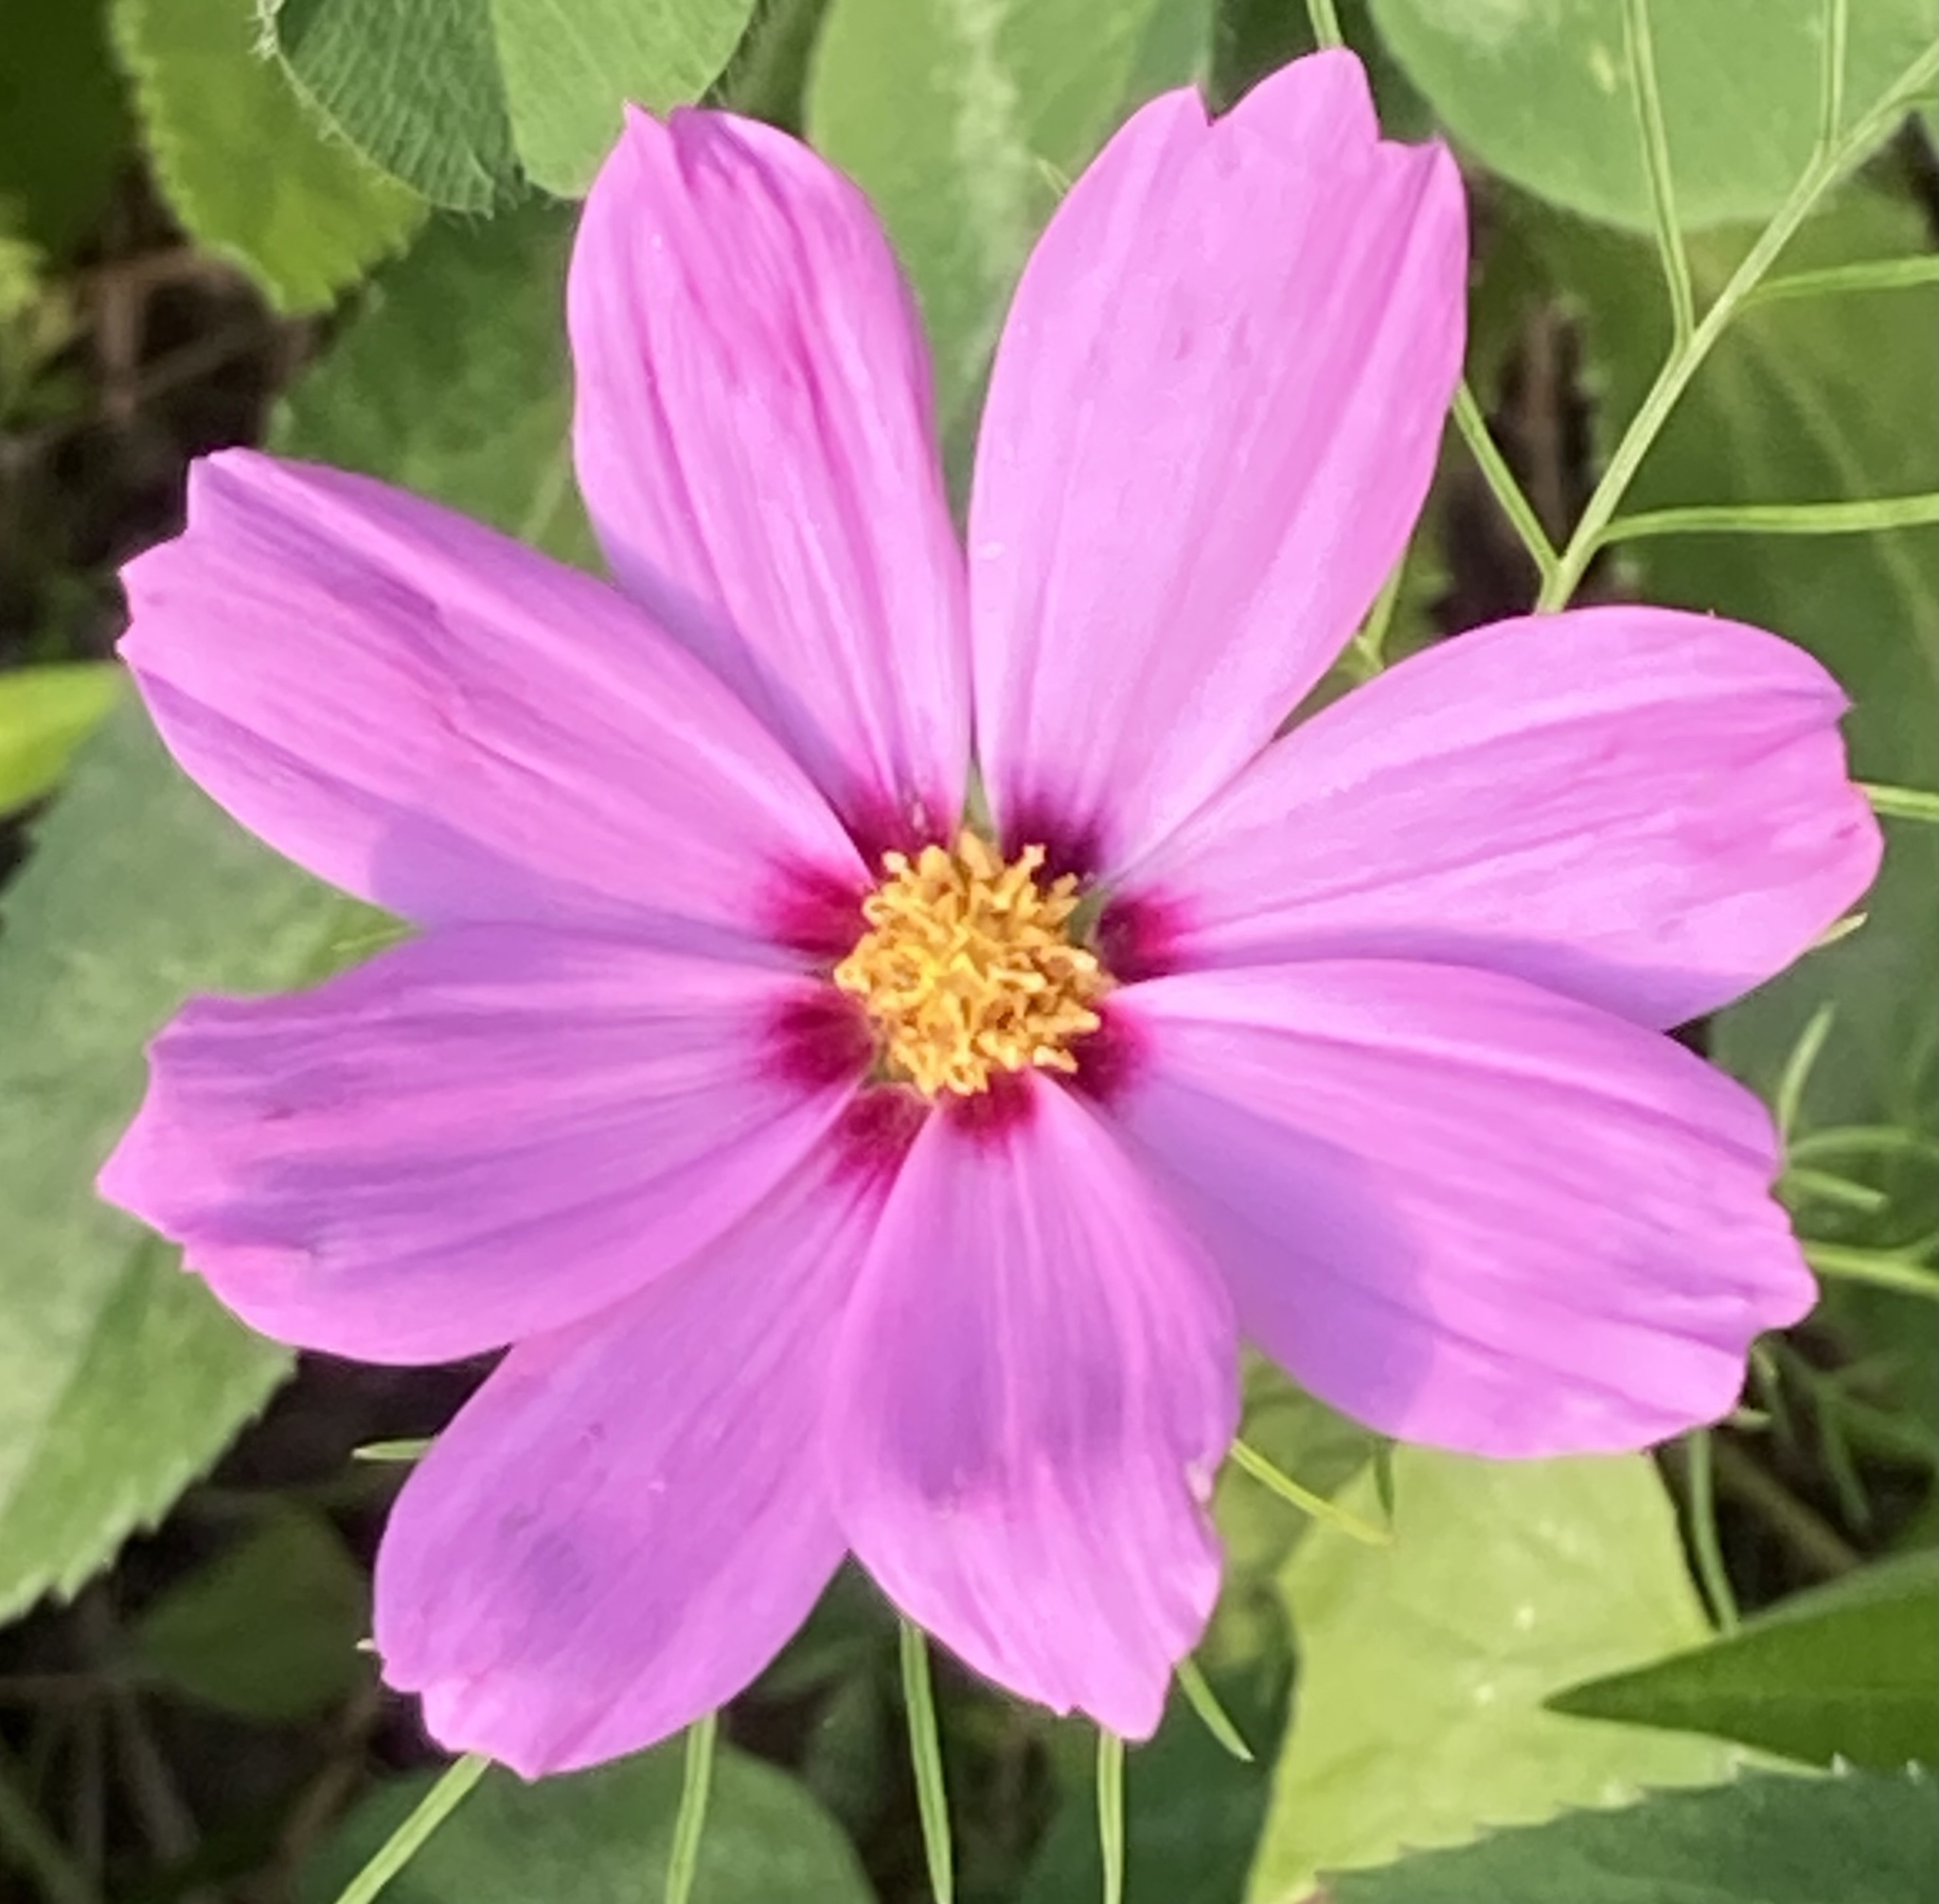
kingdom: Plantae
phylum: Tracheophyta
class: Magnoliopsida
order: Asterales
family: Asteraceae
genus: Cosmos
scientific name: Cosmos bipinnatus
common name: Garden cosmos
